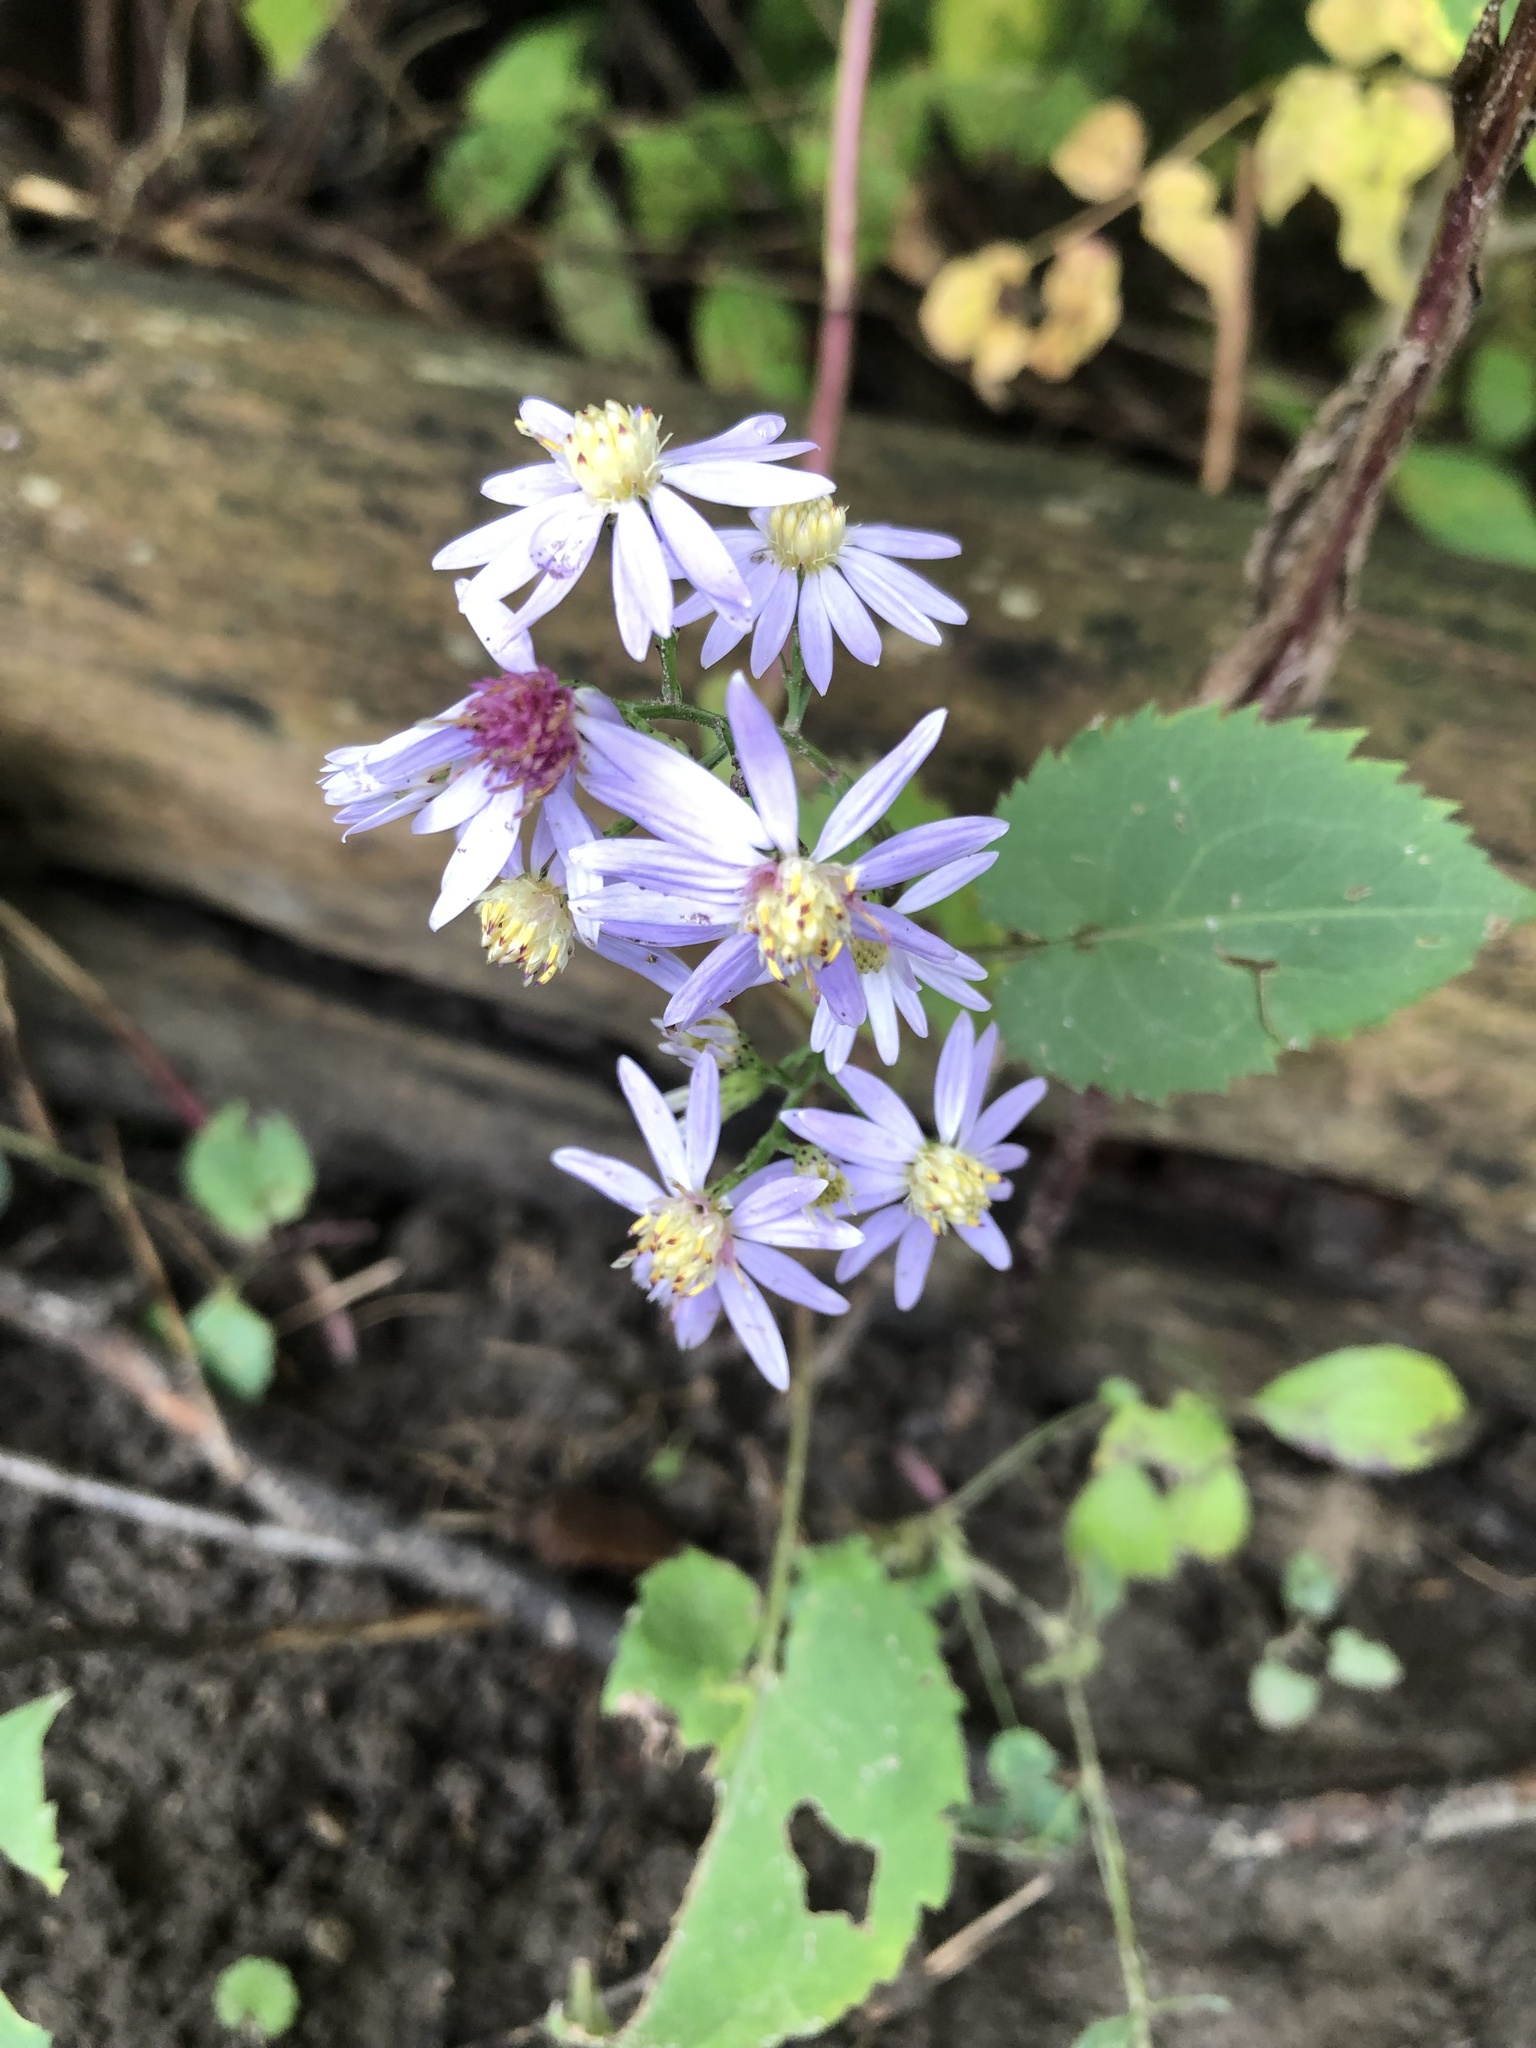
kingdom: Plantae
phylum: Tracheophyta
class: Magnoliopsida
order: Asterales
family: Asteraceae
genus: Symphyotrichum
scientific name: Symphyotrichum cordifolium
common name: Beeweed
